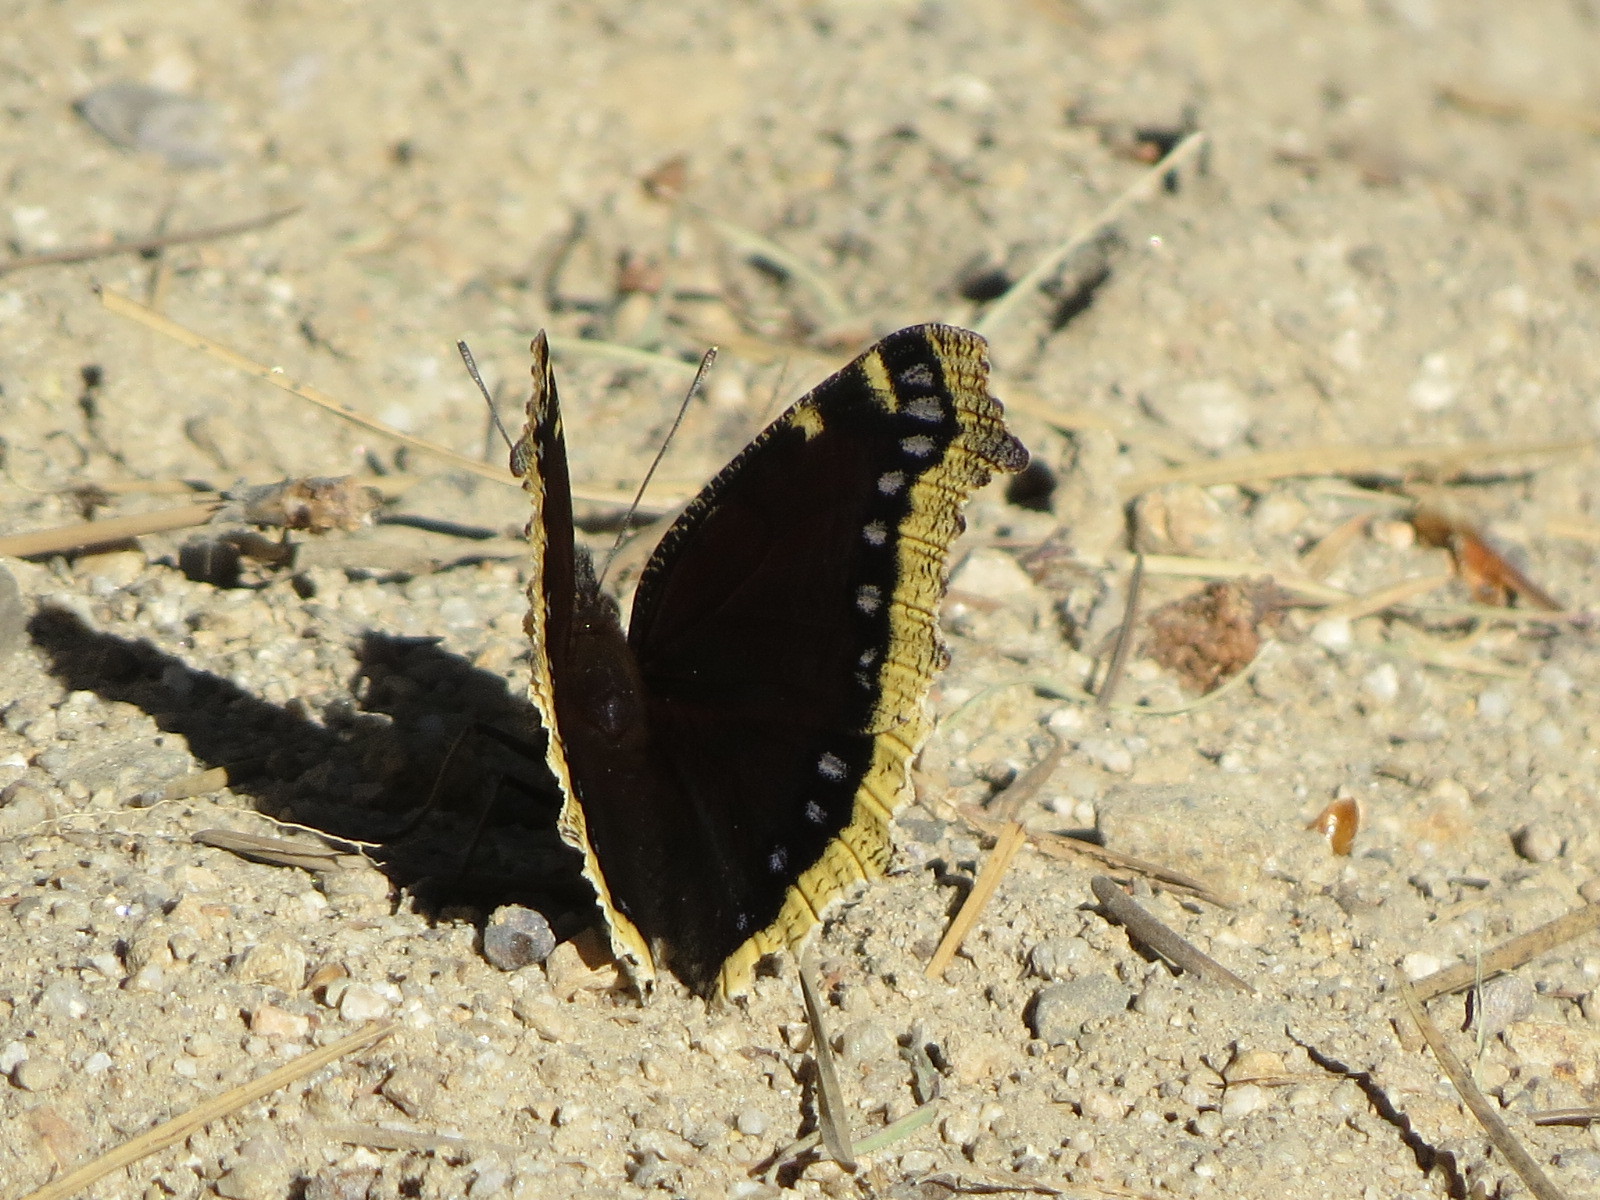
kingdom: Animalia
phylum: Arthropoda
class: Insecta
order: Lepidoptera
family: Nymphalidae
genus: Nymphalis
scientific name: Nymphalis antiopa
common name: Camberwell beauty
